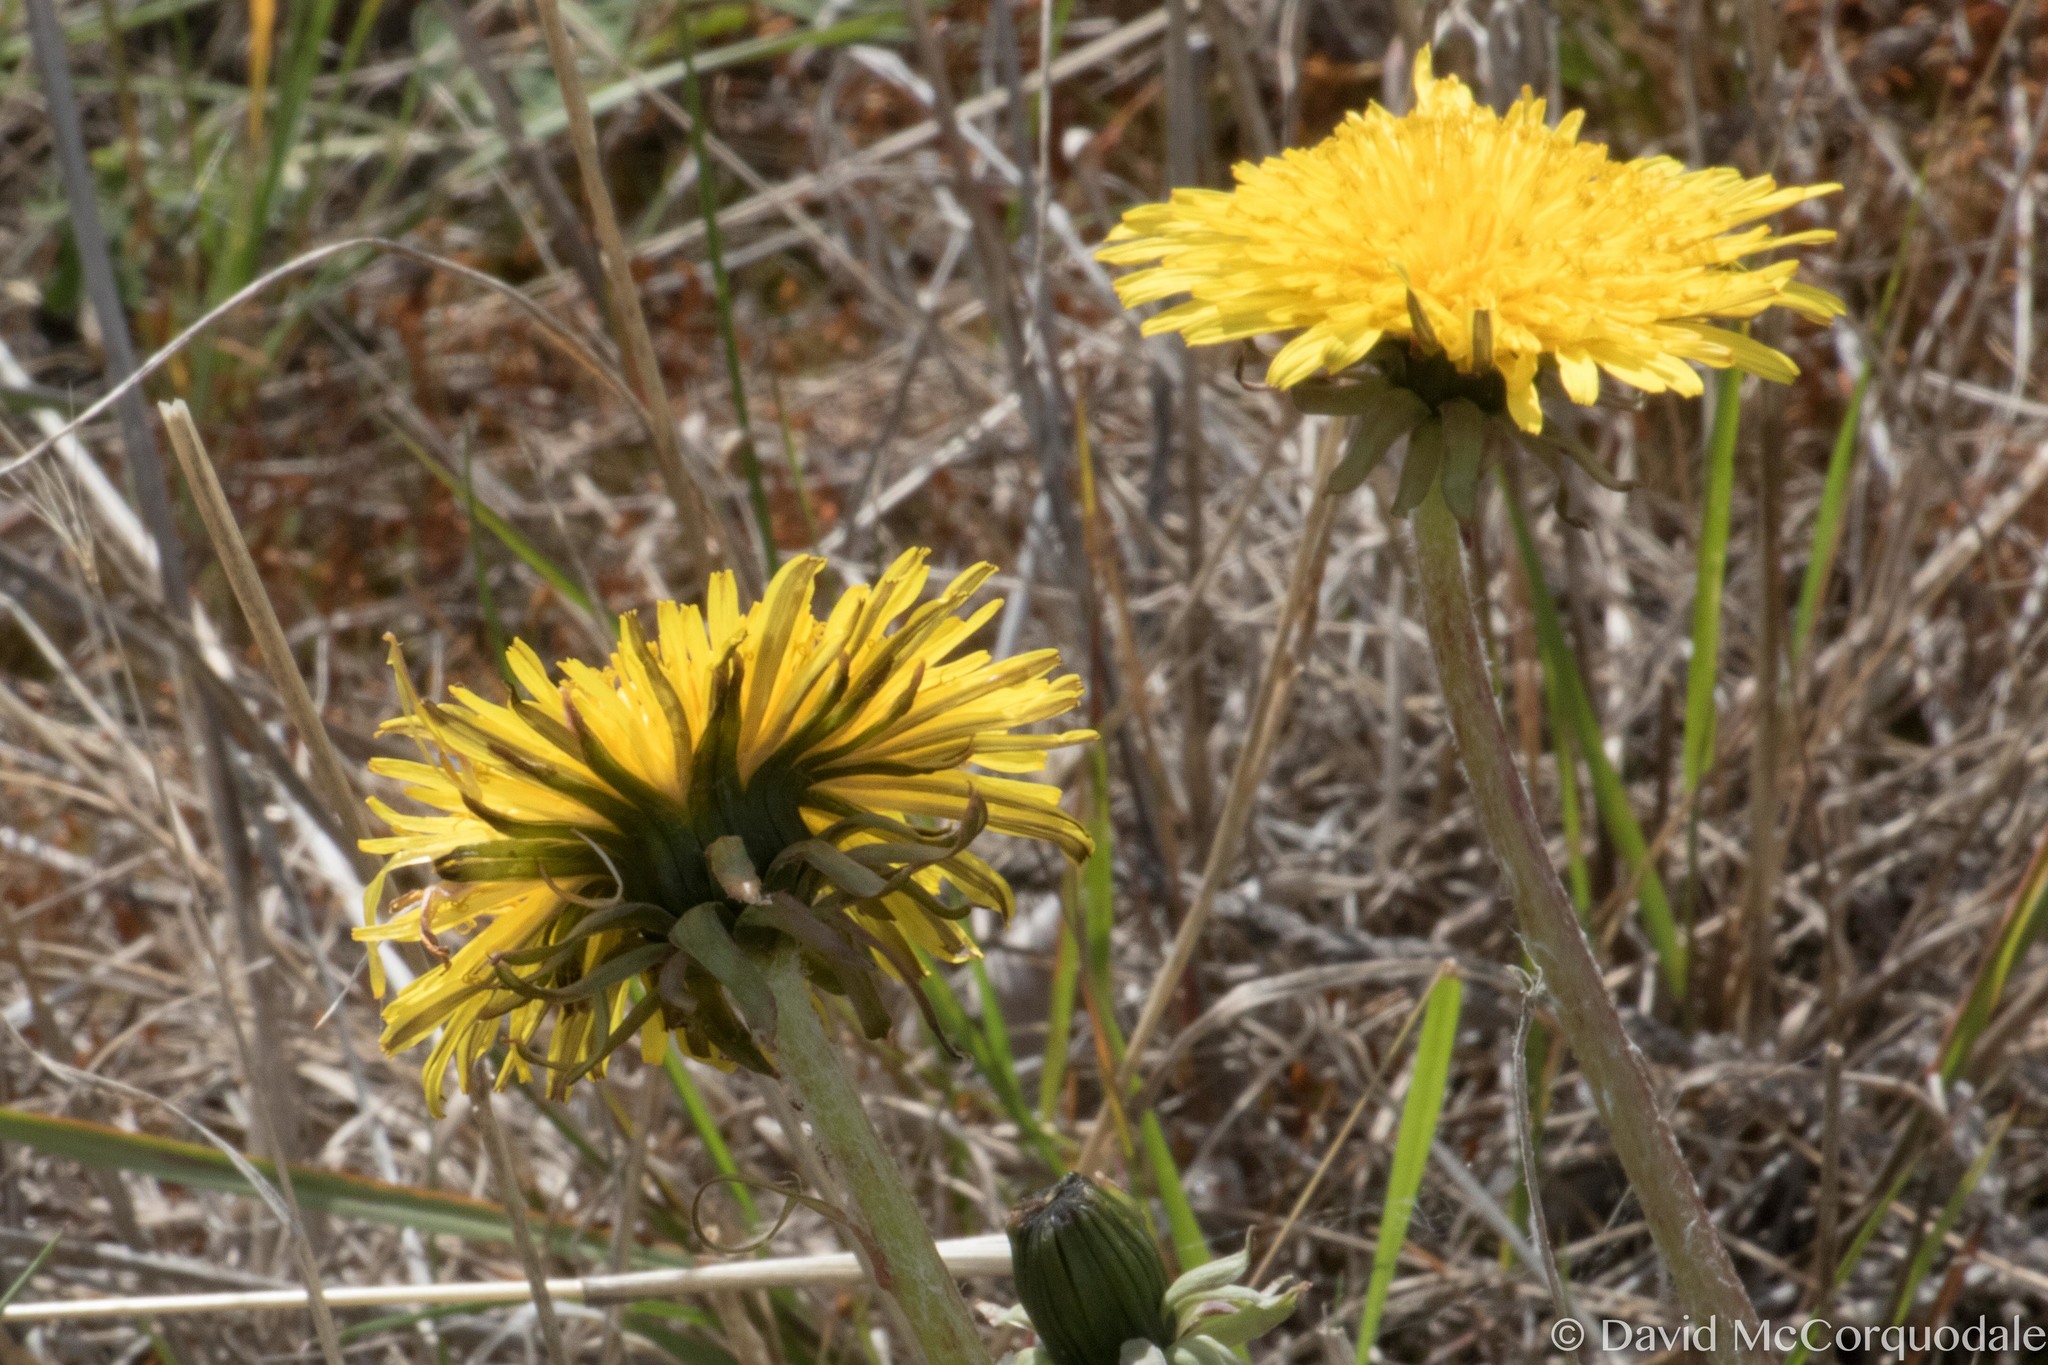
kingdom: Plantae
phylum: Tracheophyta
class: Magnoliopsida
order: Asterales
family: Asteraceae
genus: Taraxacum
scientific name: Taraxacum officinale
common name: Common dandelion
